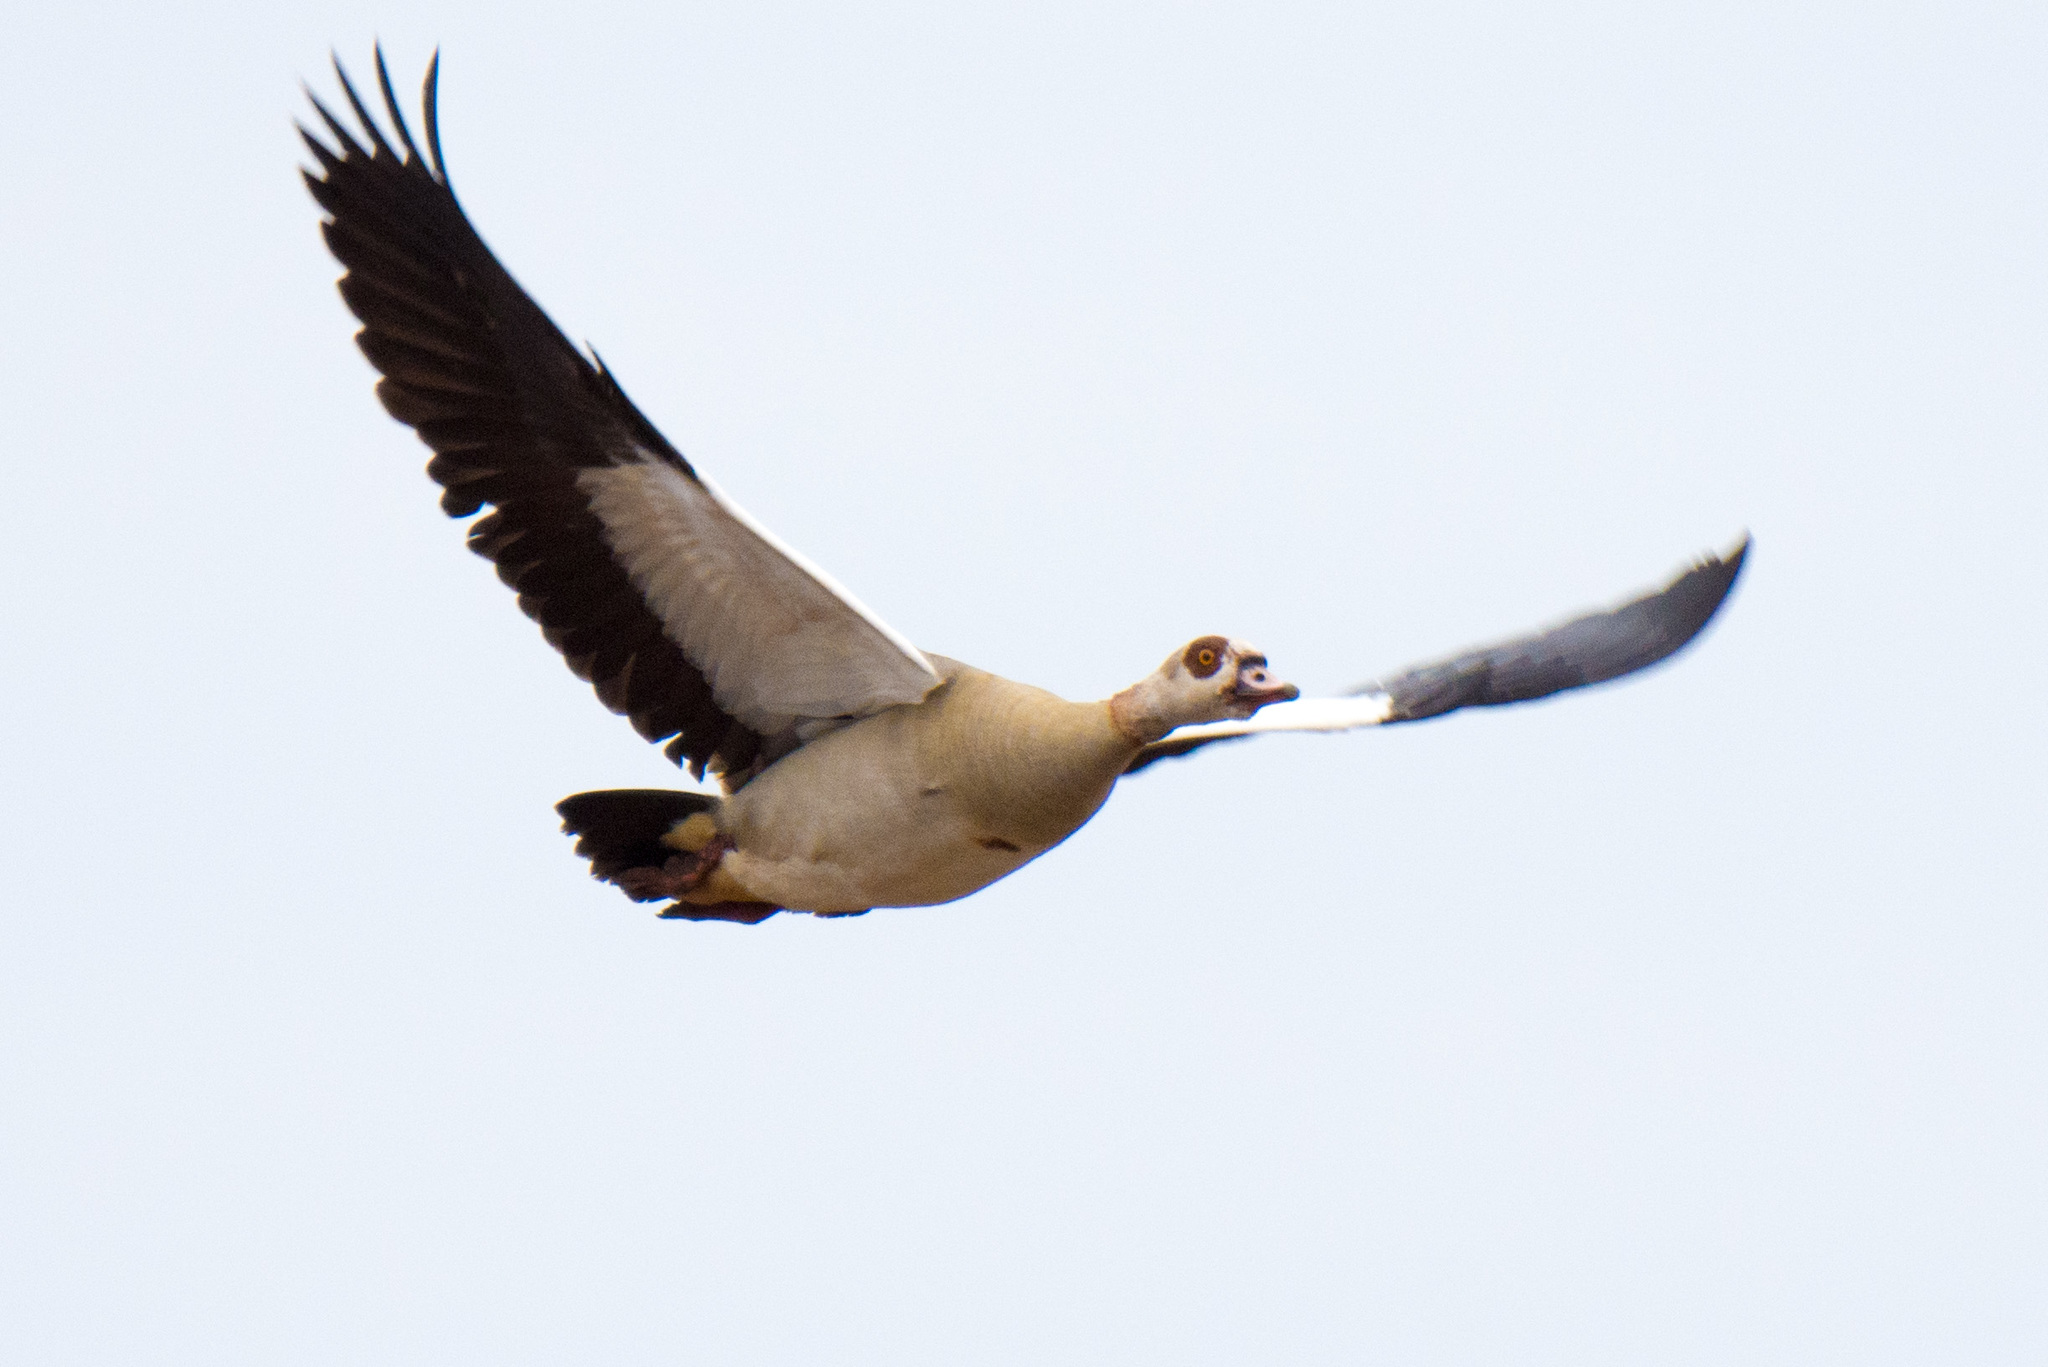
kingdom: Animalia
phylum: Chordata
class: Aves
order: Anseriformes
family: Anatidae
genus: Alopochen
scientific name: Alopochen aegyptiaca
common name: Egyptian goose
